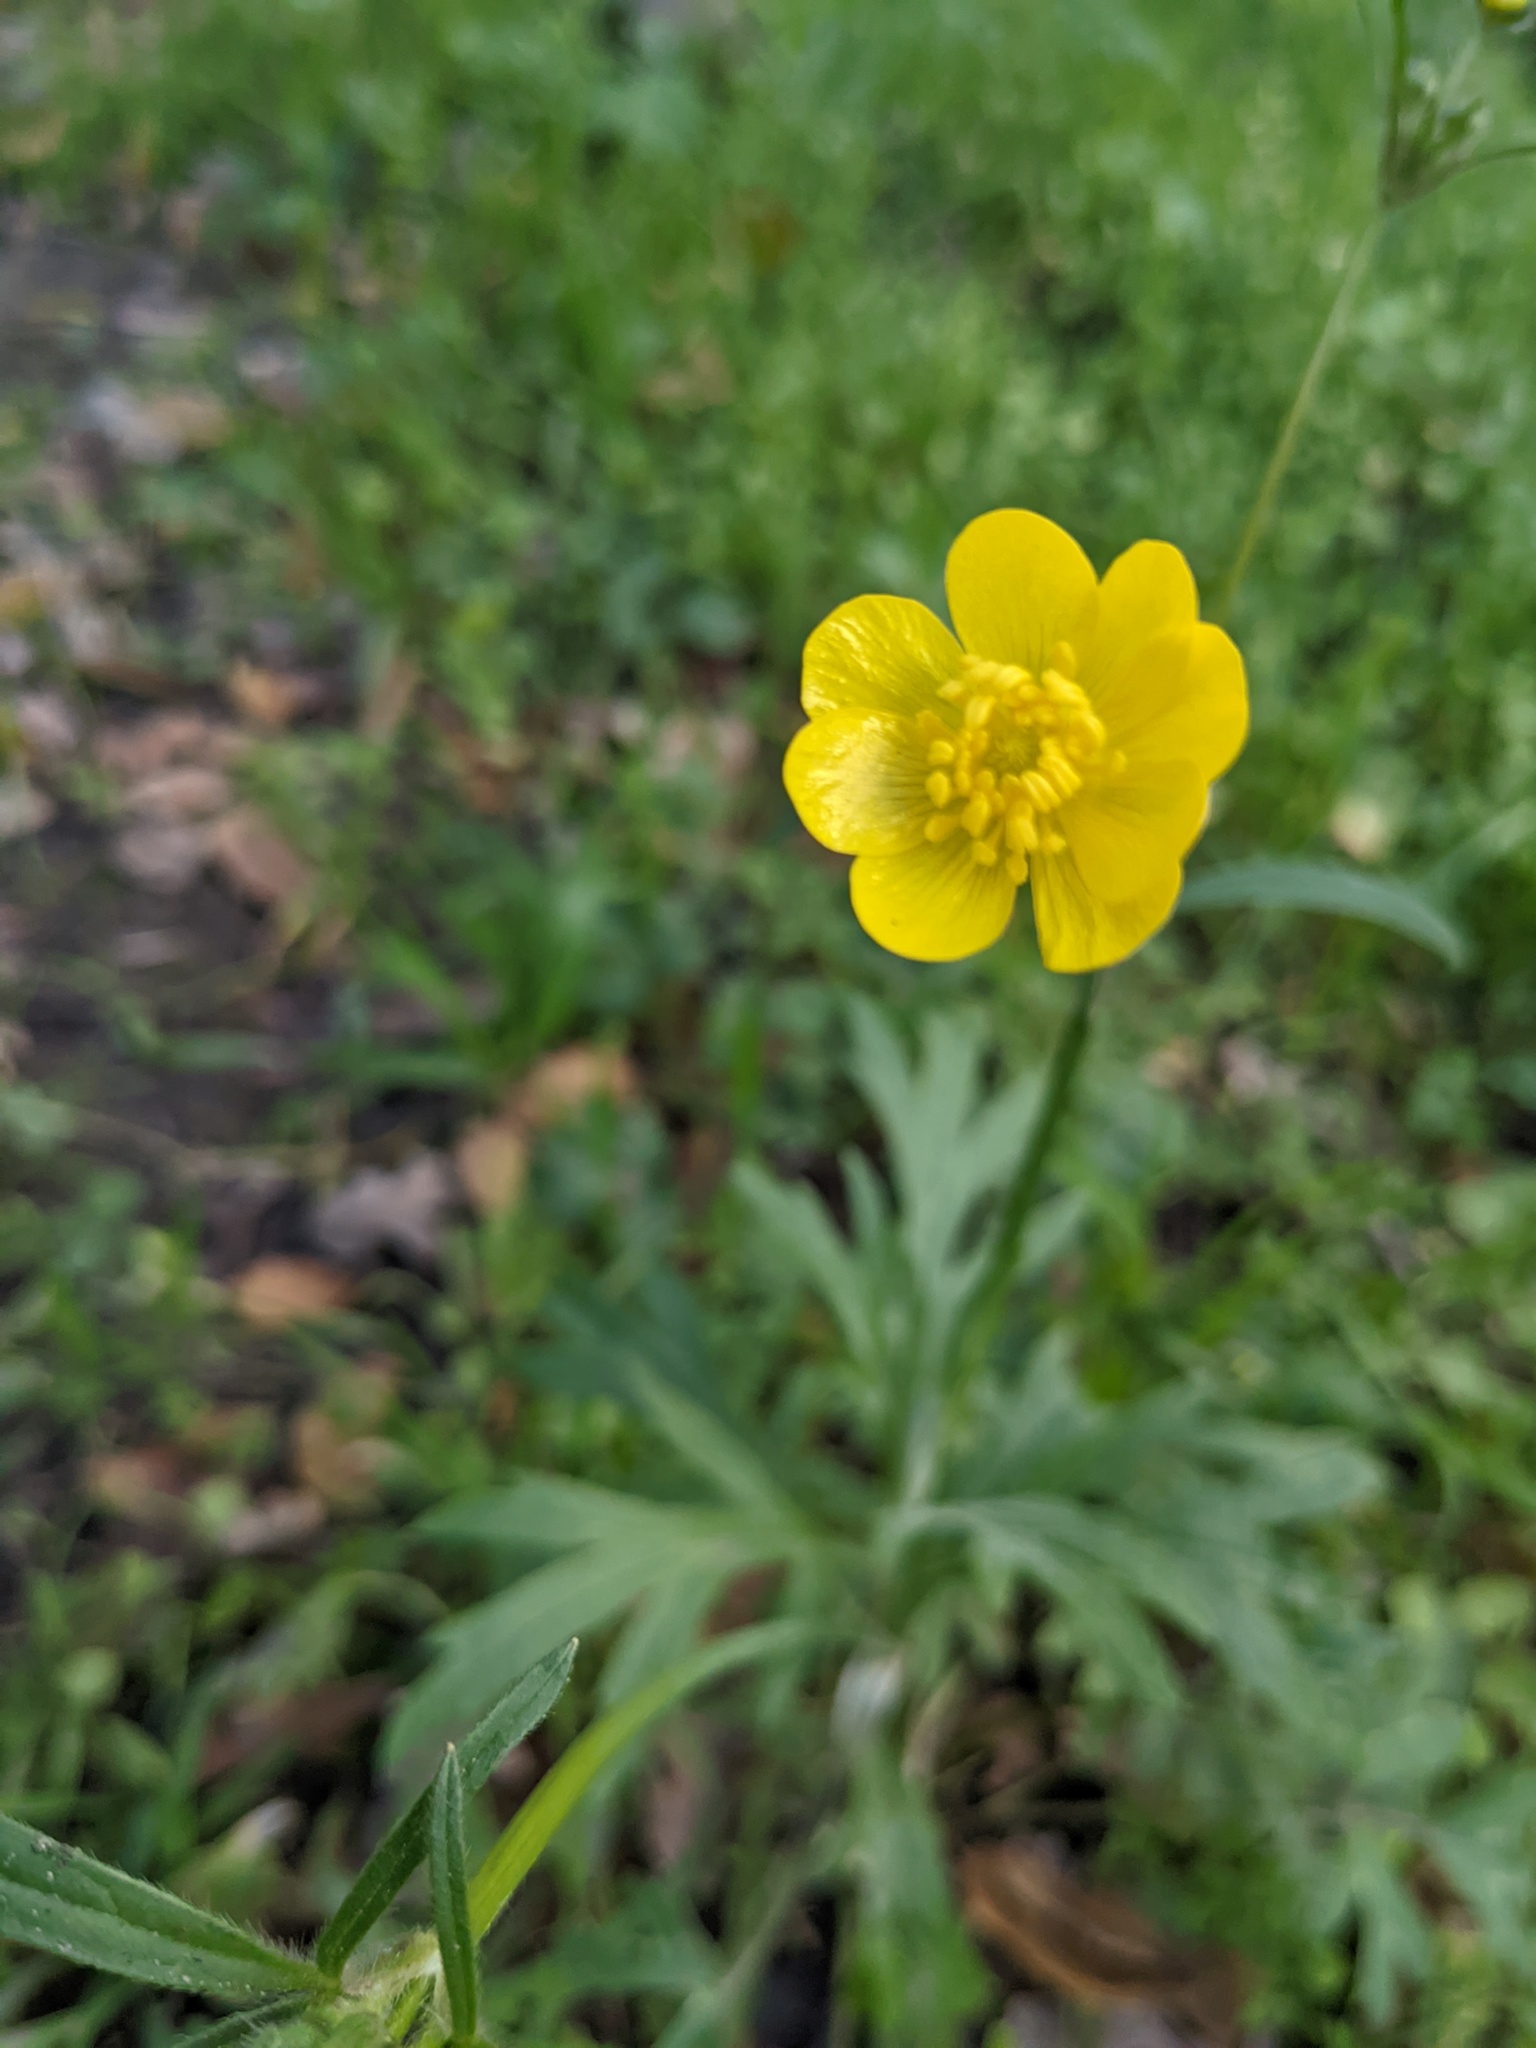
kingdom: Plantae
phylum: Tracheophyta
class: Magnoliopsida
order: Ranunculales
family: Ranunculaceae
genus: Ranunculus
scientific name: Ranunculus californicus
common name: California buttercup
